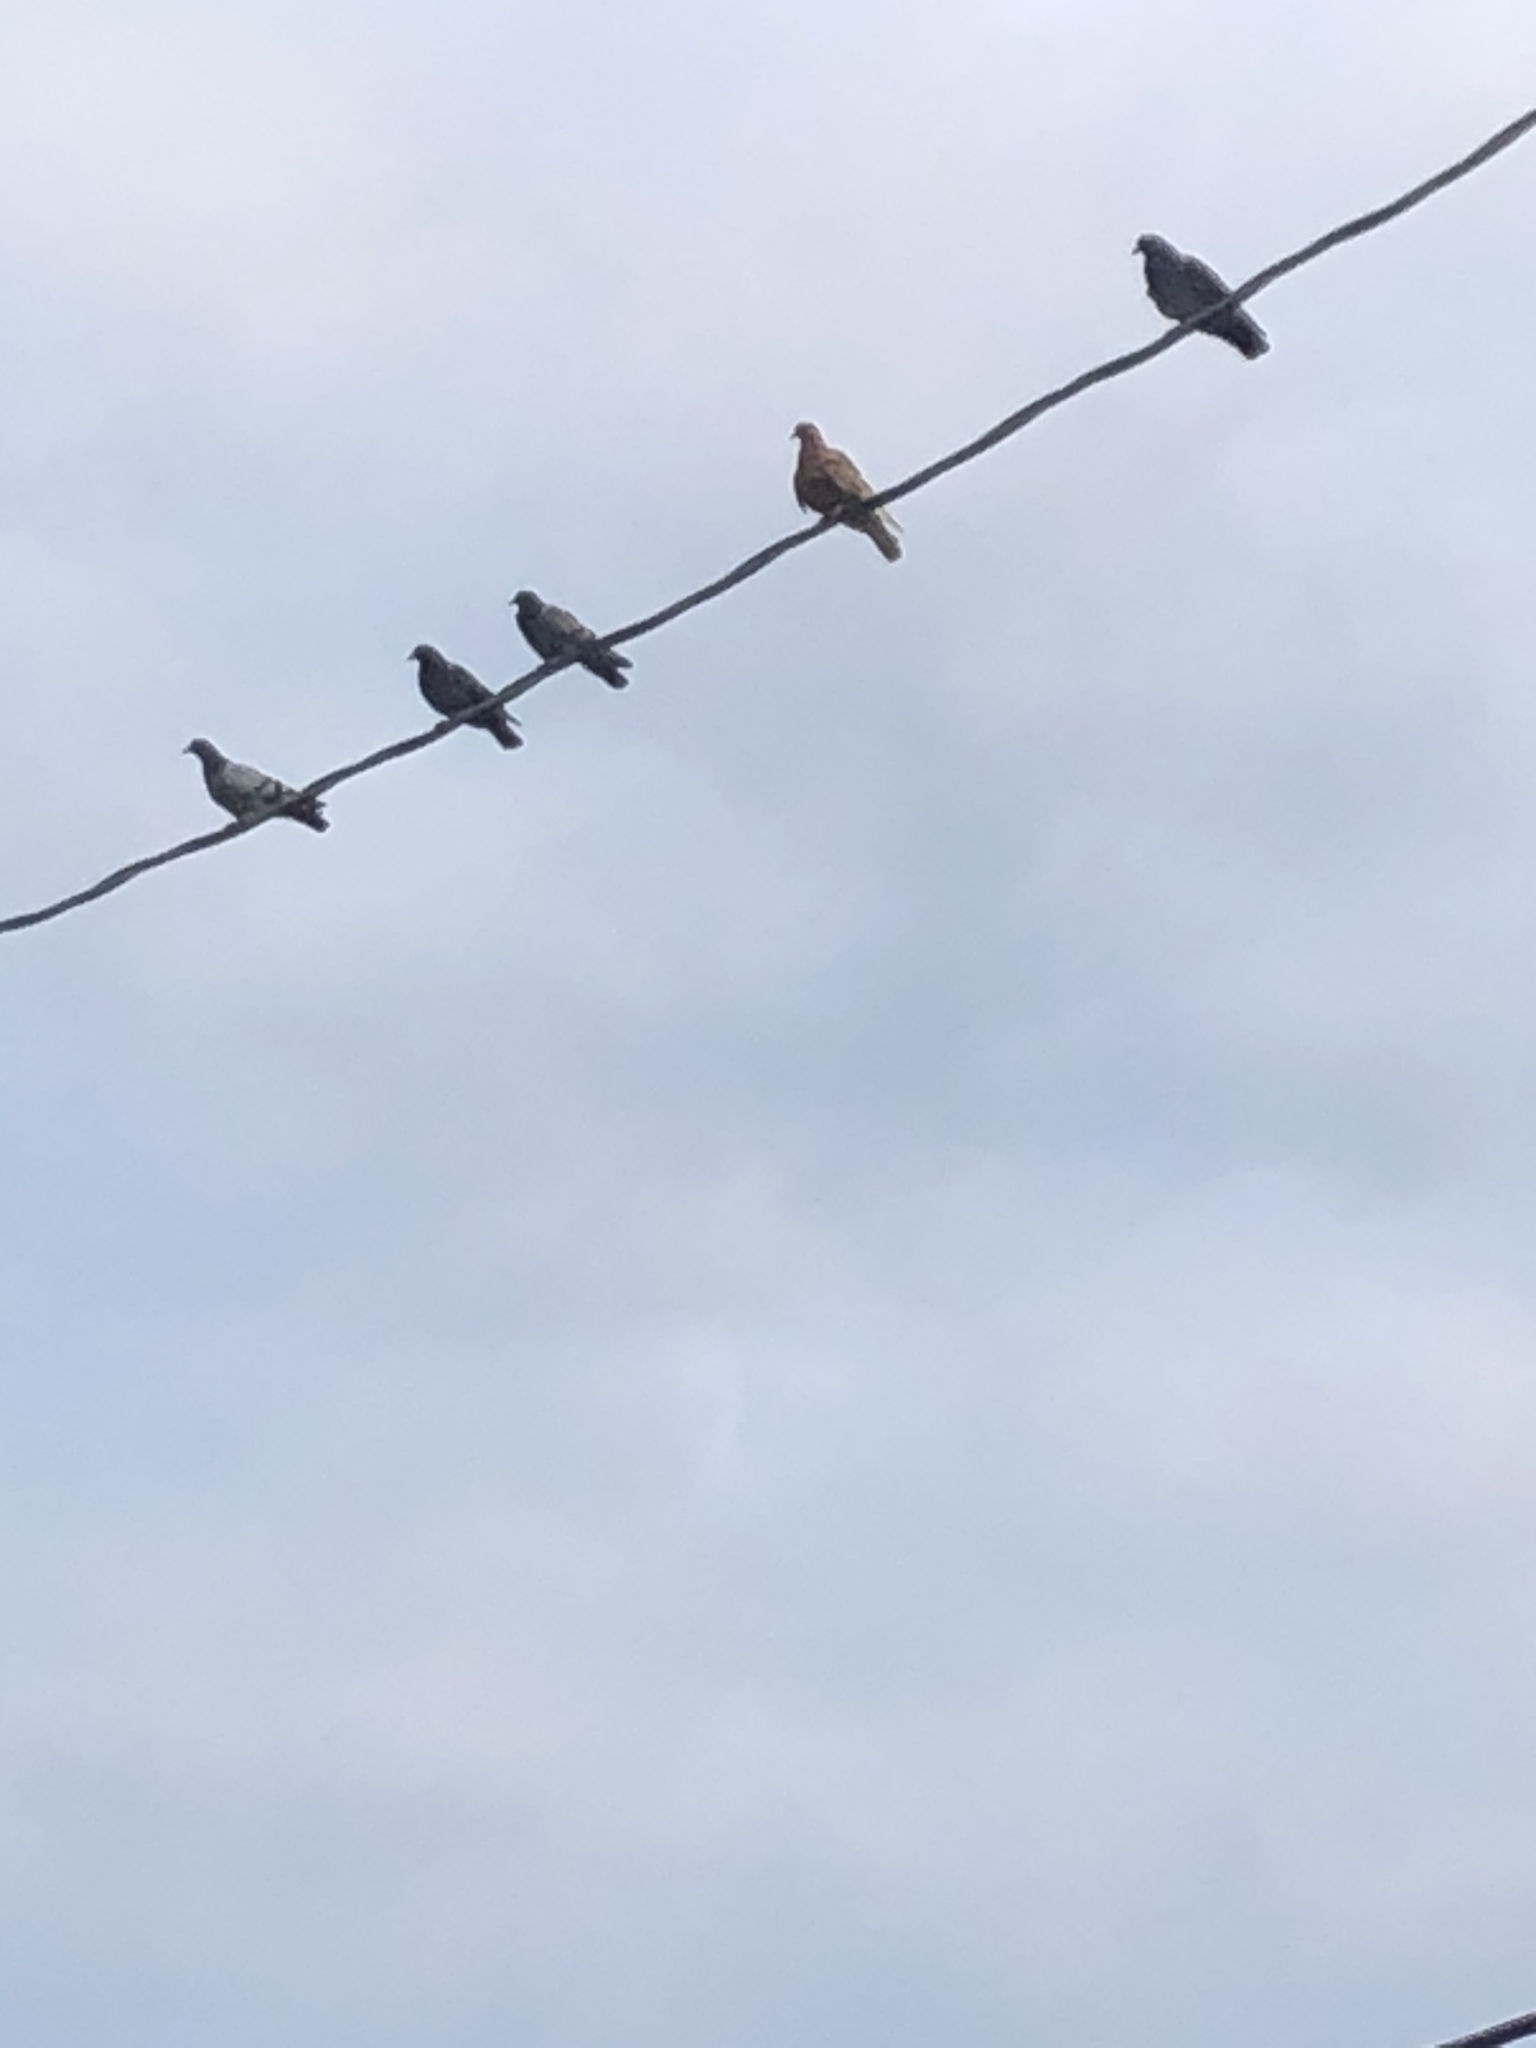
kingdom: Animalia
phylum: Chordata
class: Aves
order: Columbiformes
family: Columbidae
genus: Columba
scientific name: Columba livia
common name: Rock pigeon
